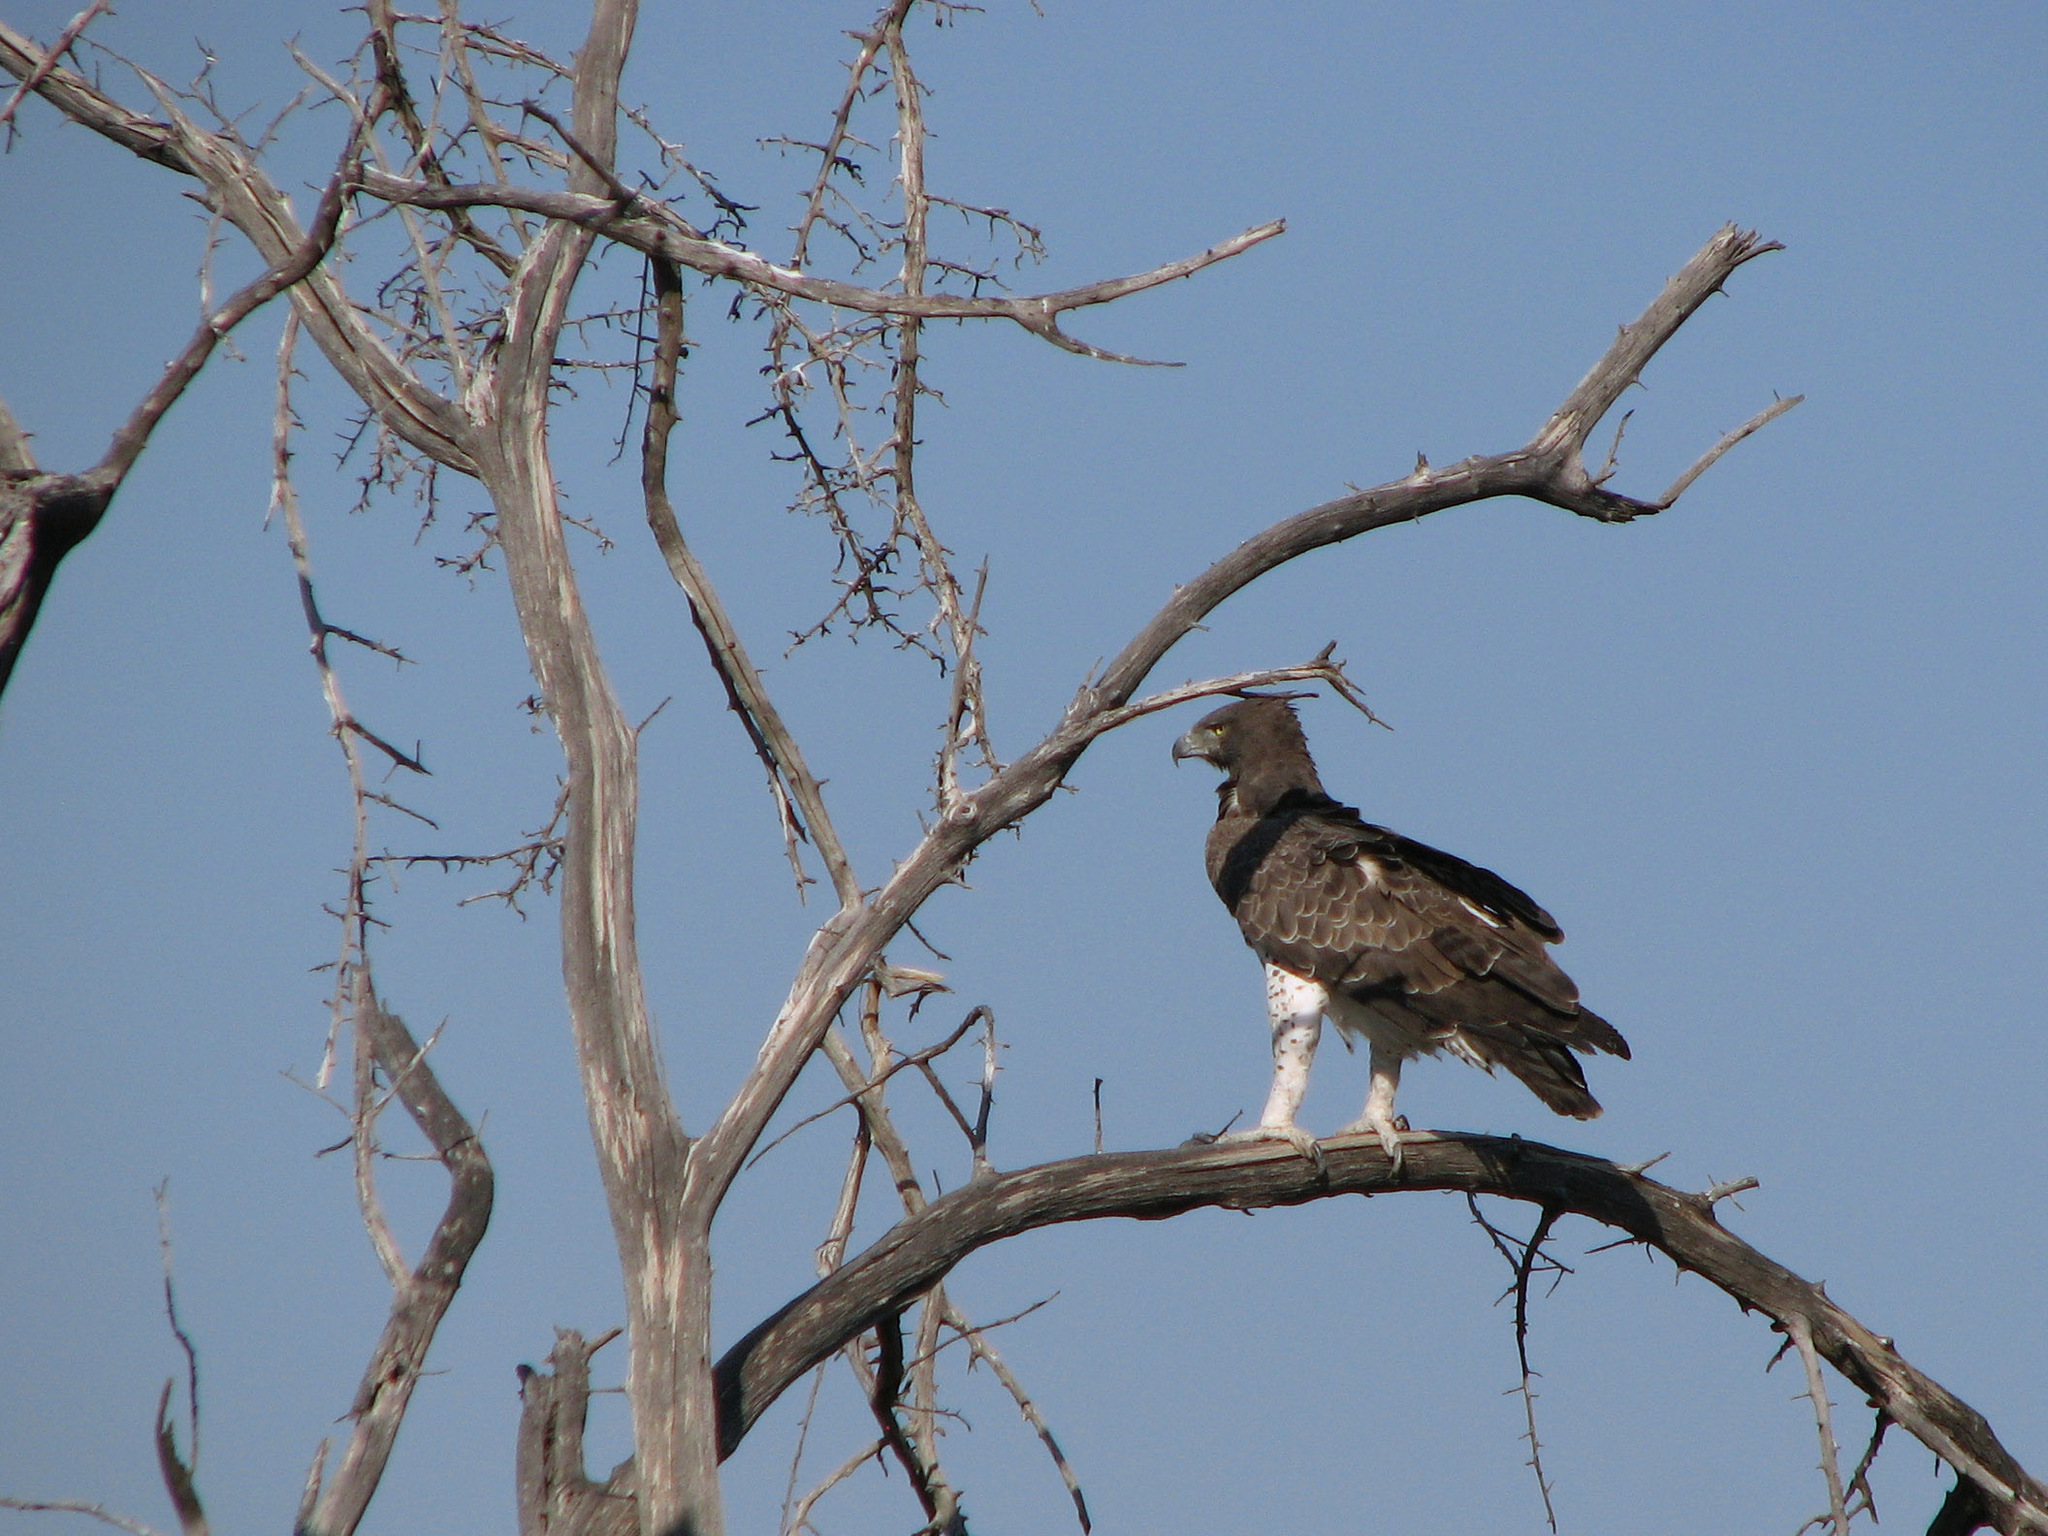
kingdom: Animalia
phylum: Chordata
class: Aves
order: Accipitriformes
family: Accipitridae
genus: Polemaetus
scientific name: Polemaetus bellicosus
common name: Martial eagle
